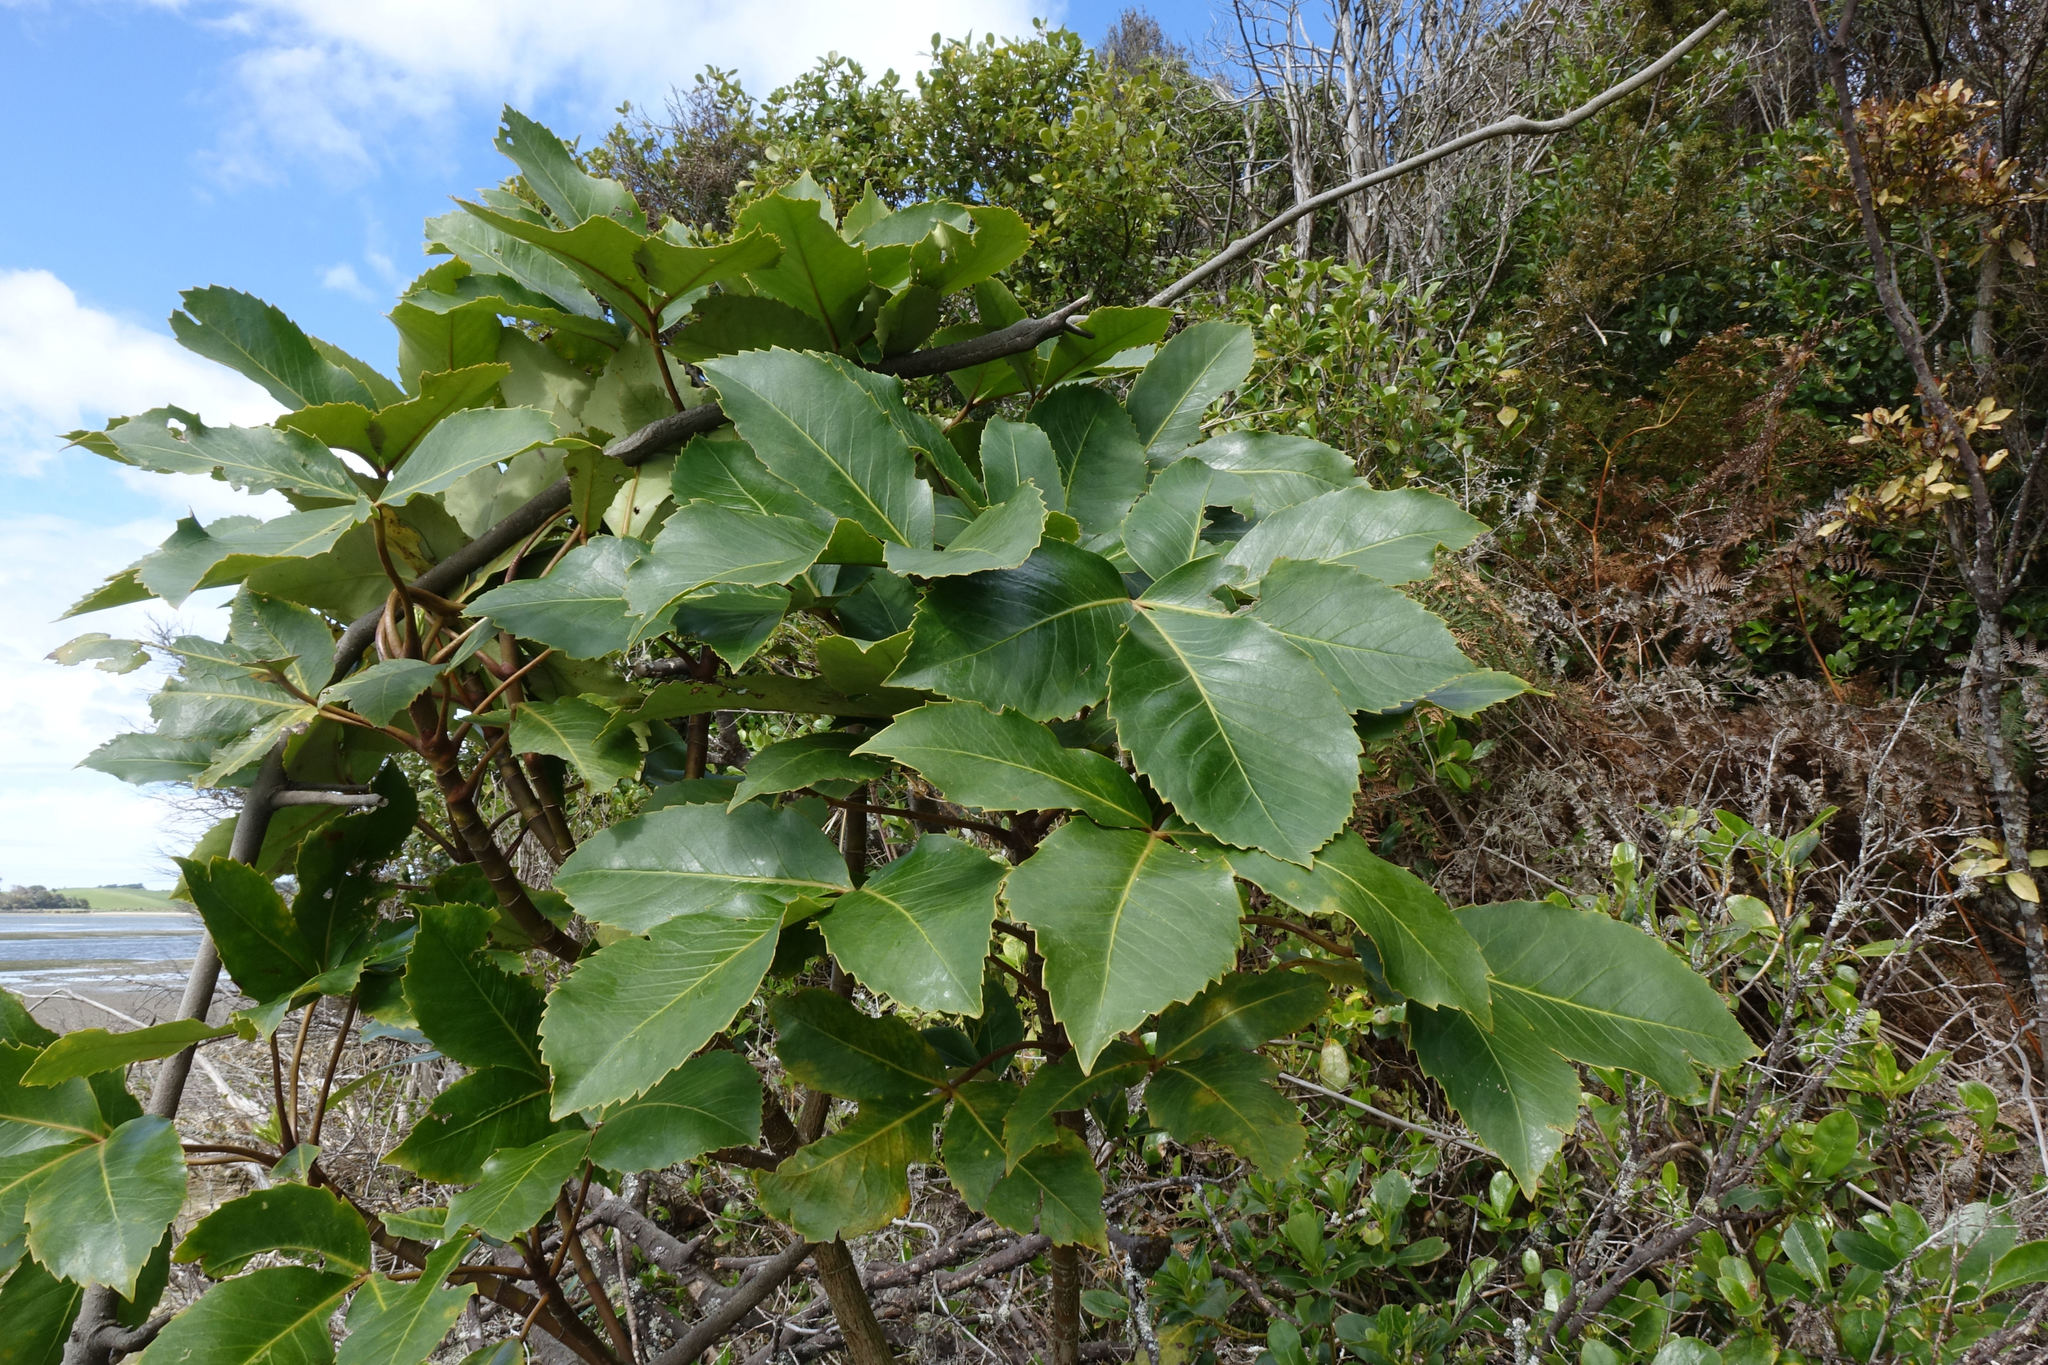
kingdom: Plantae
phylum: Tracheophyta
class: Magnoliopsida
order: Apiales
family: Araliaceae
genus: Neopanax
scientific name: Neopanax colensoi
